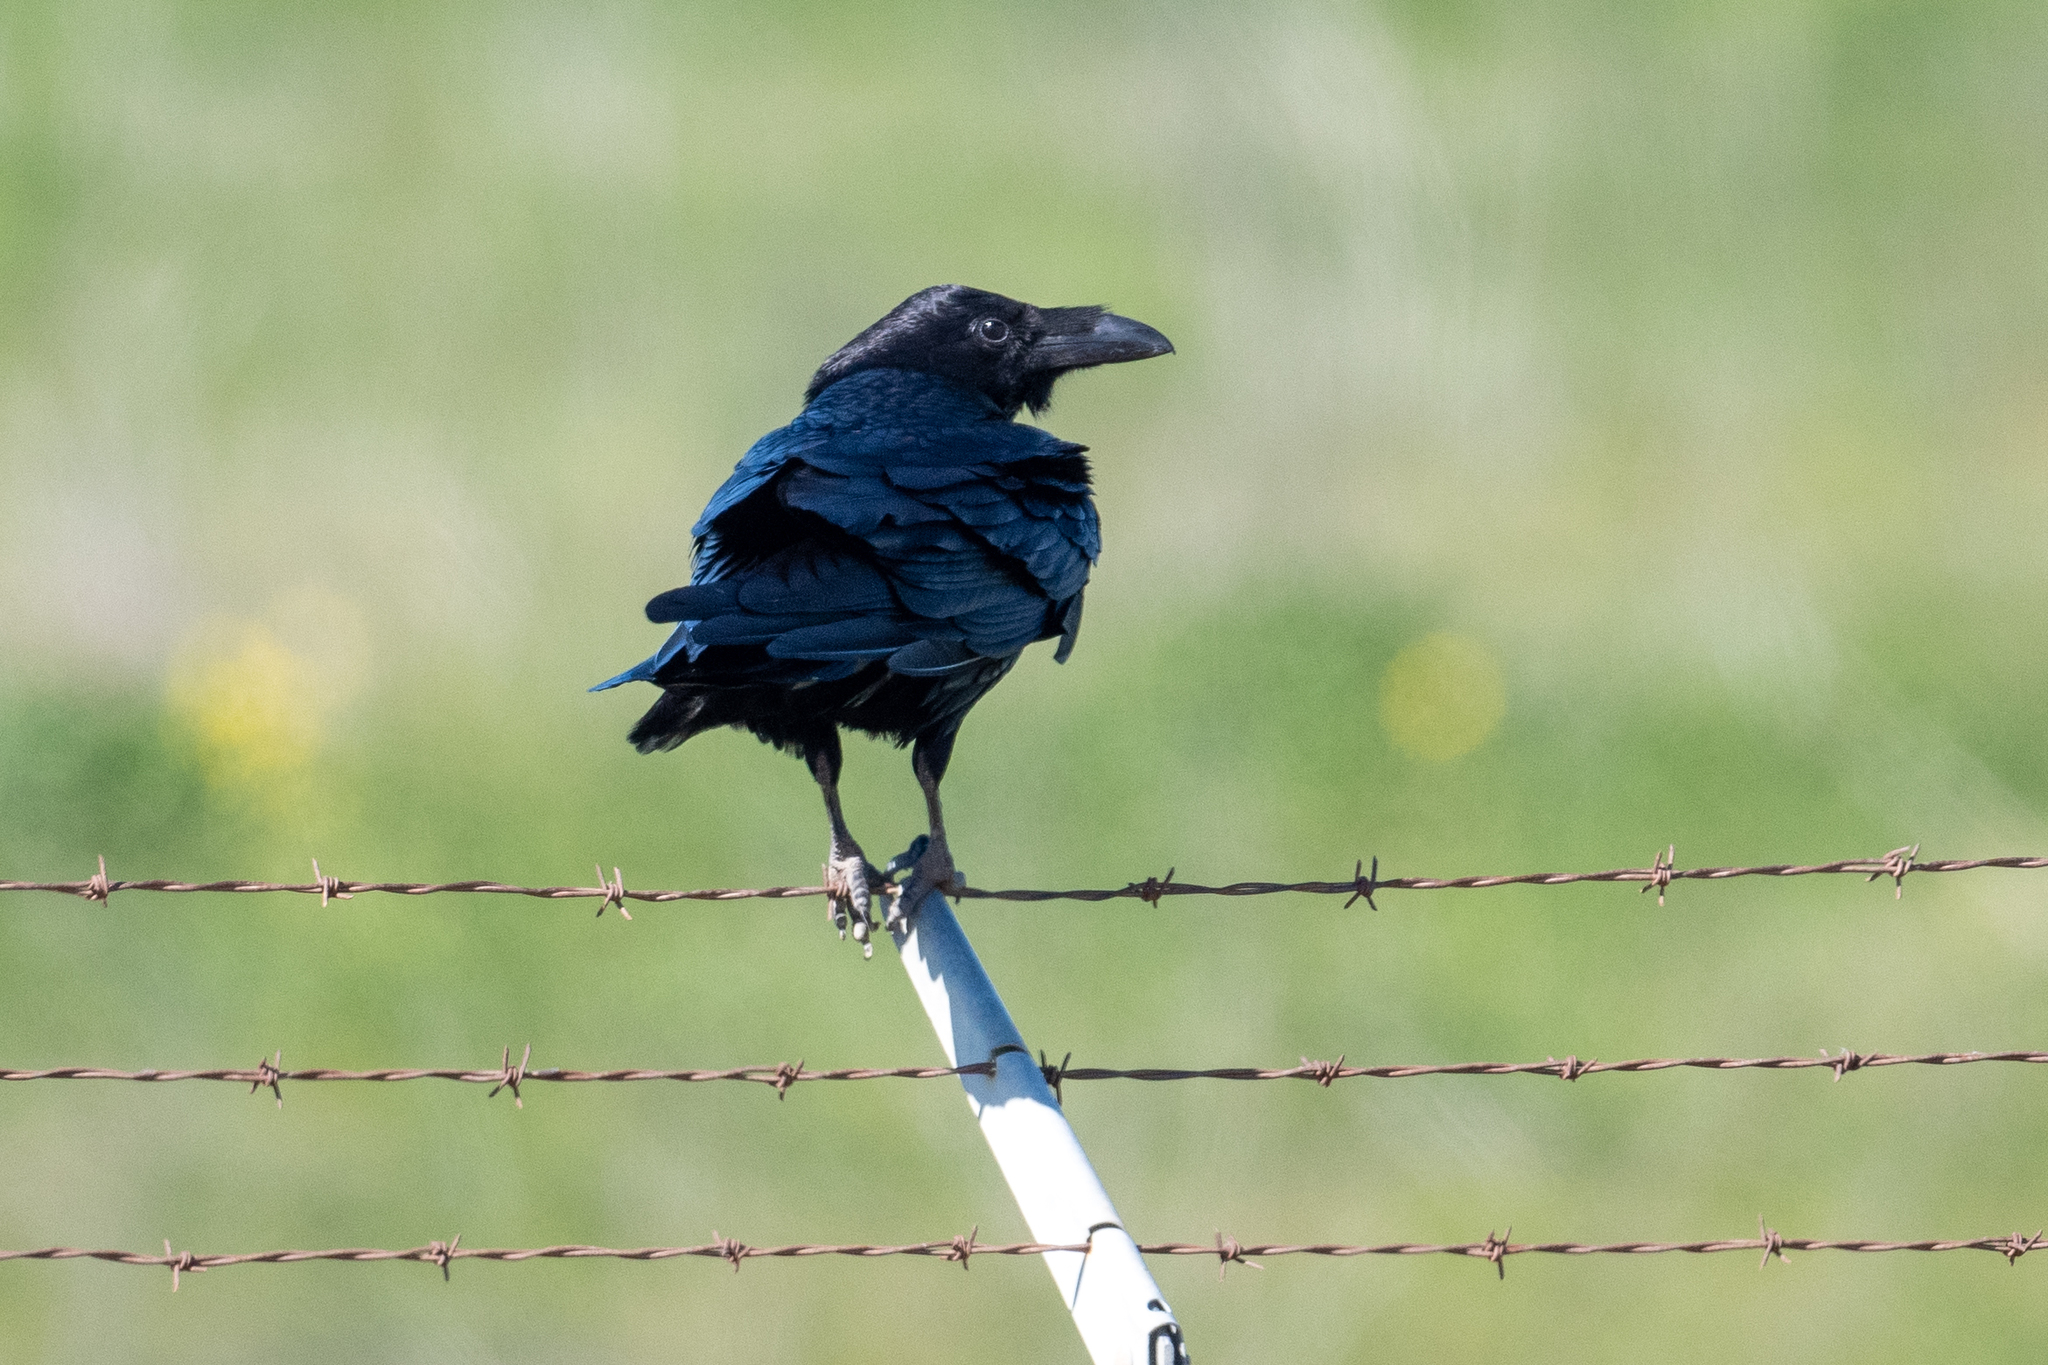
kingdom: Animalia
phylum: Chordata
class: Aves
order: Passeriformes
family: Corvidae
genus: Corvus
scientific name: Corvus corax
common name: Common raven
